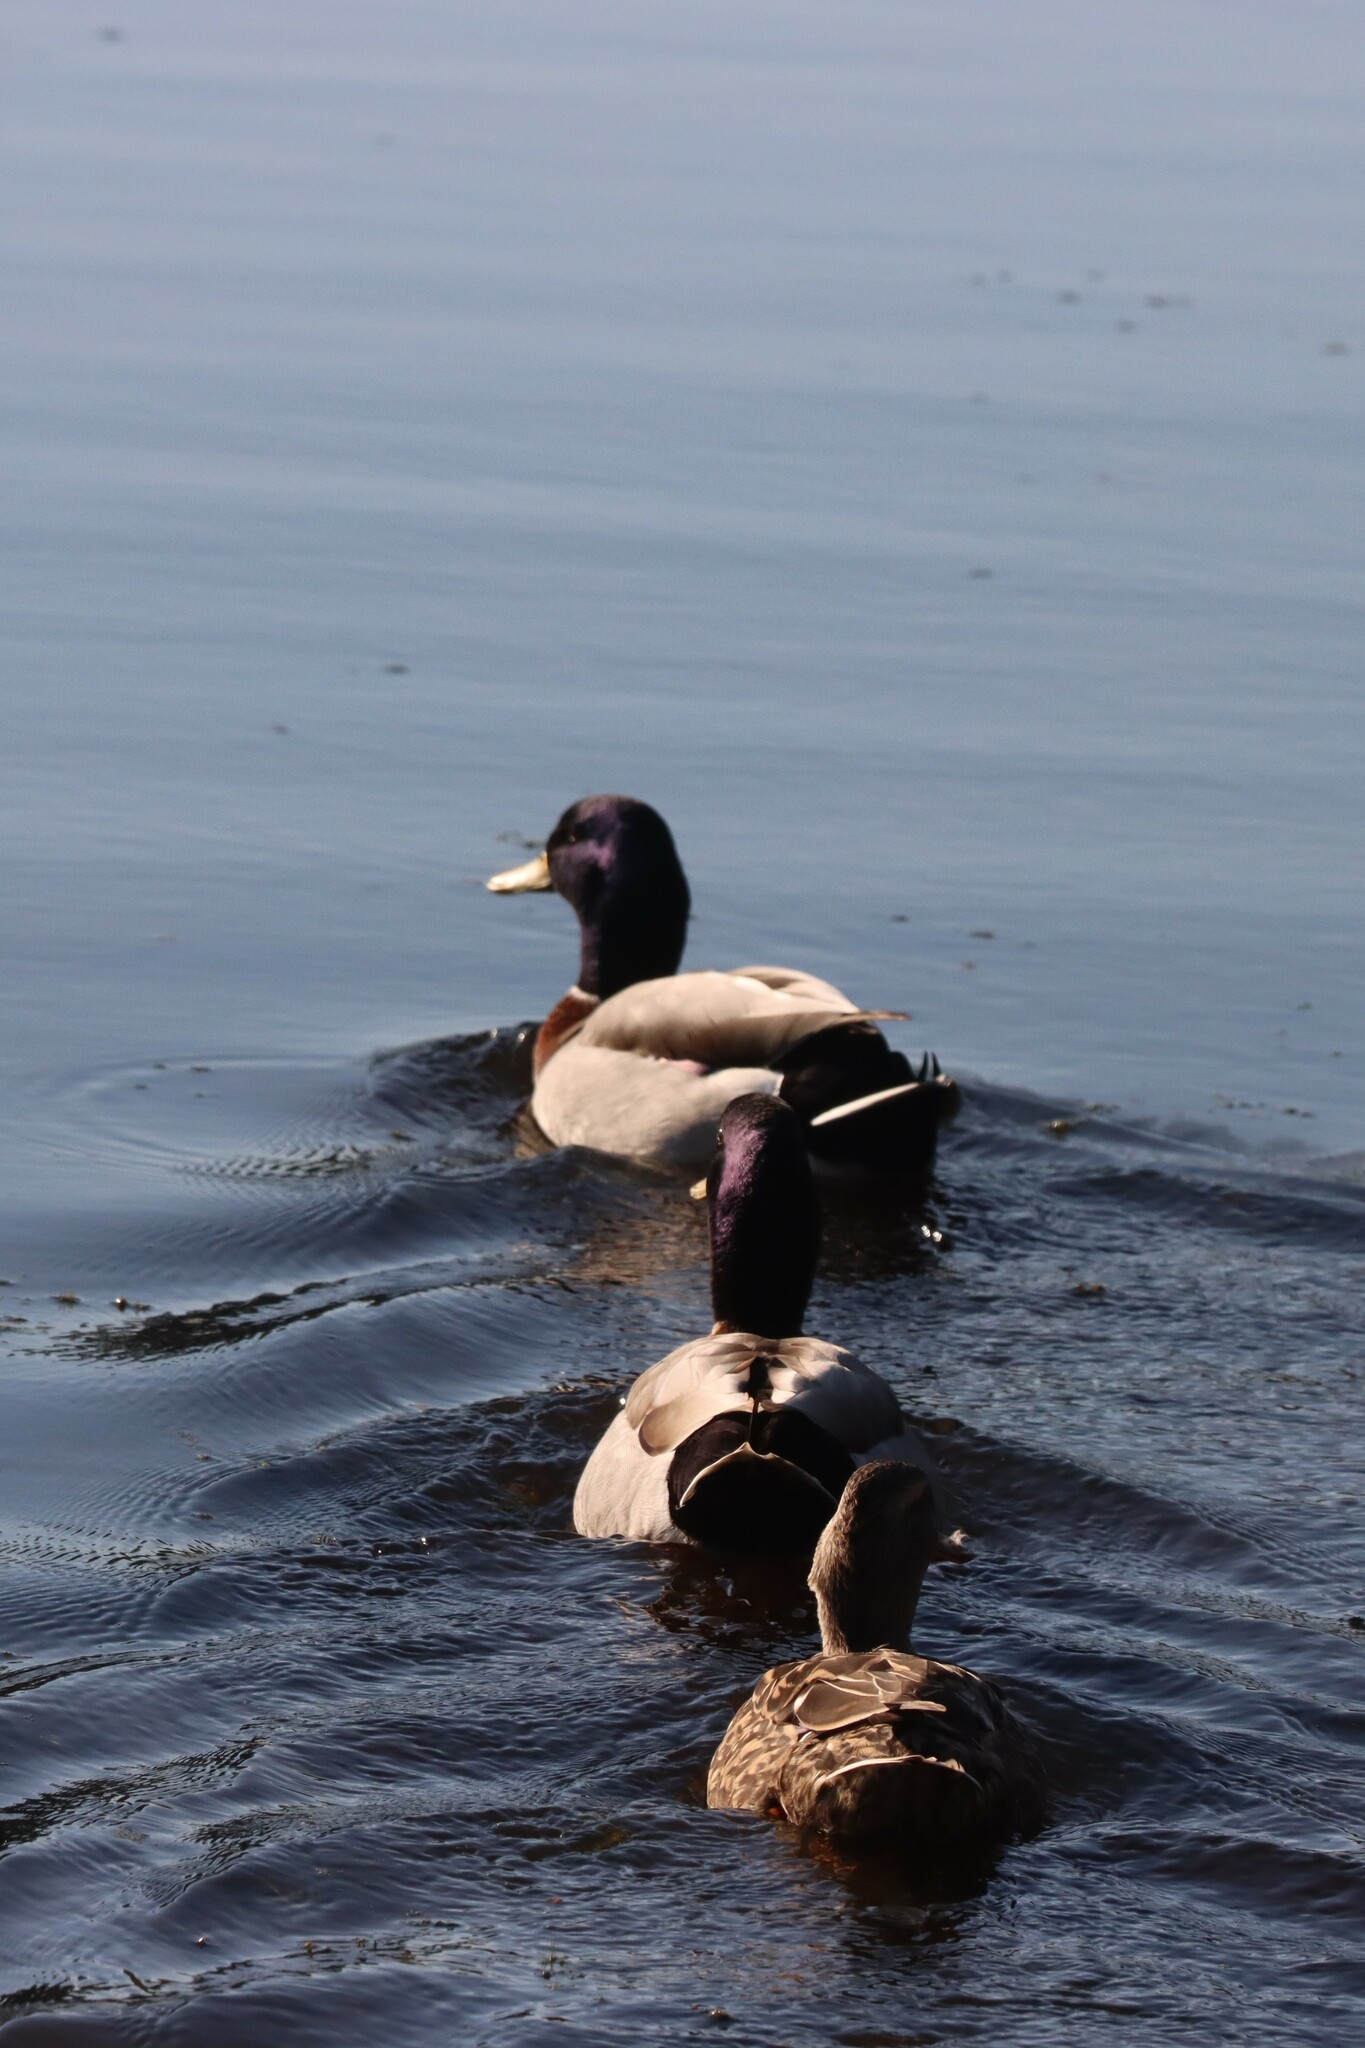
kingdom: Animalia
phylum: Chordata
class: Aves
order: Anseriformes
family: Anatidae
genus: Anas
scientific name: Anas platyrhynchos
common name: Mallard
